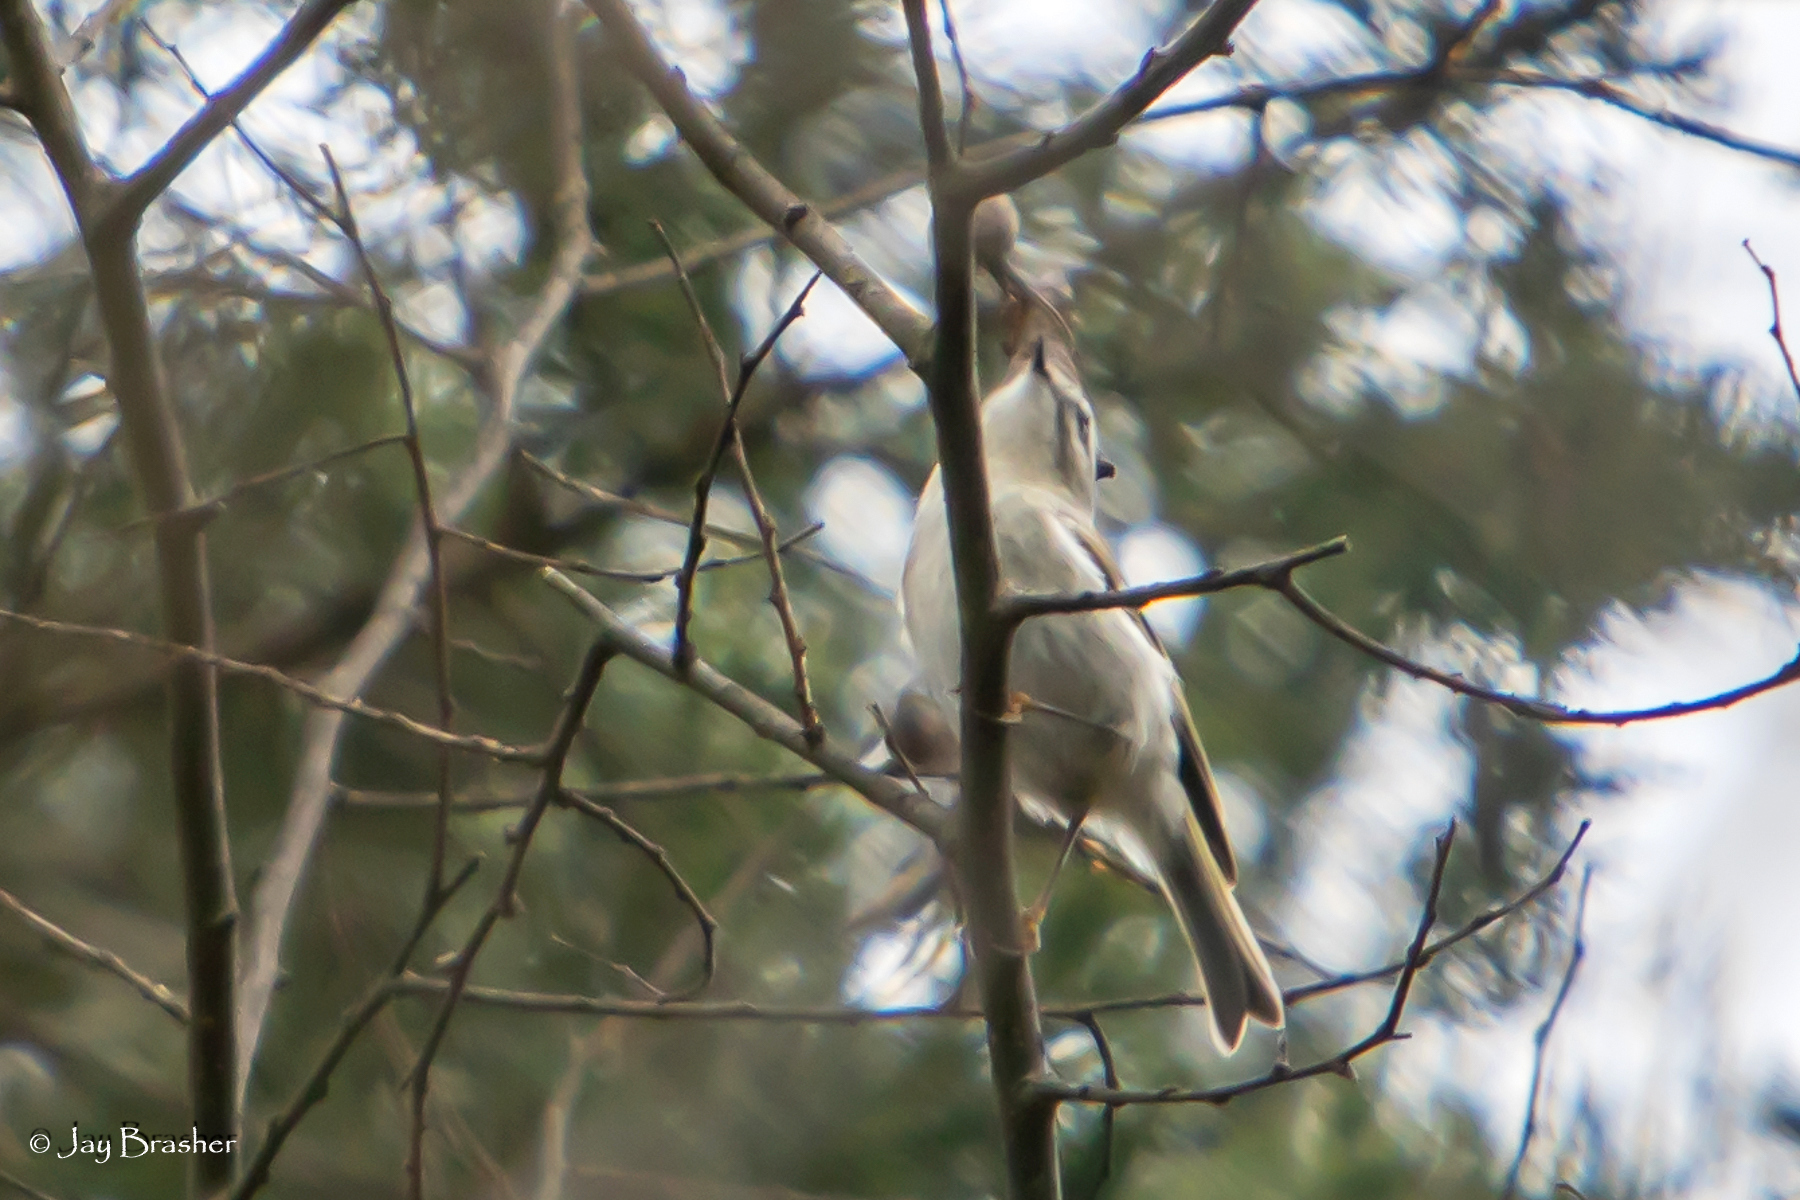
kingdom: Animalia
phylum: Chordata
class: Aves
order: Passeriformes
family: Regulidae
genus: Regulus
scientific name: Regulus satrapa
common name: Golden-crowned kinglet
